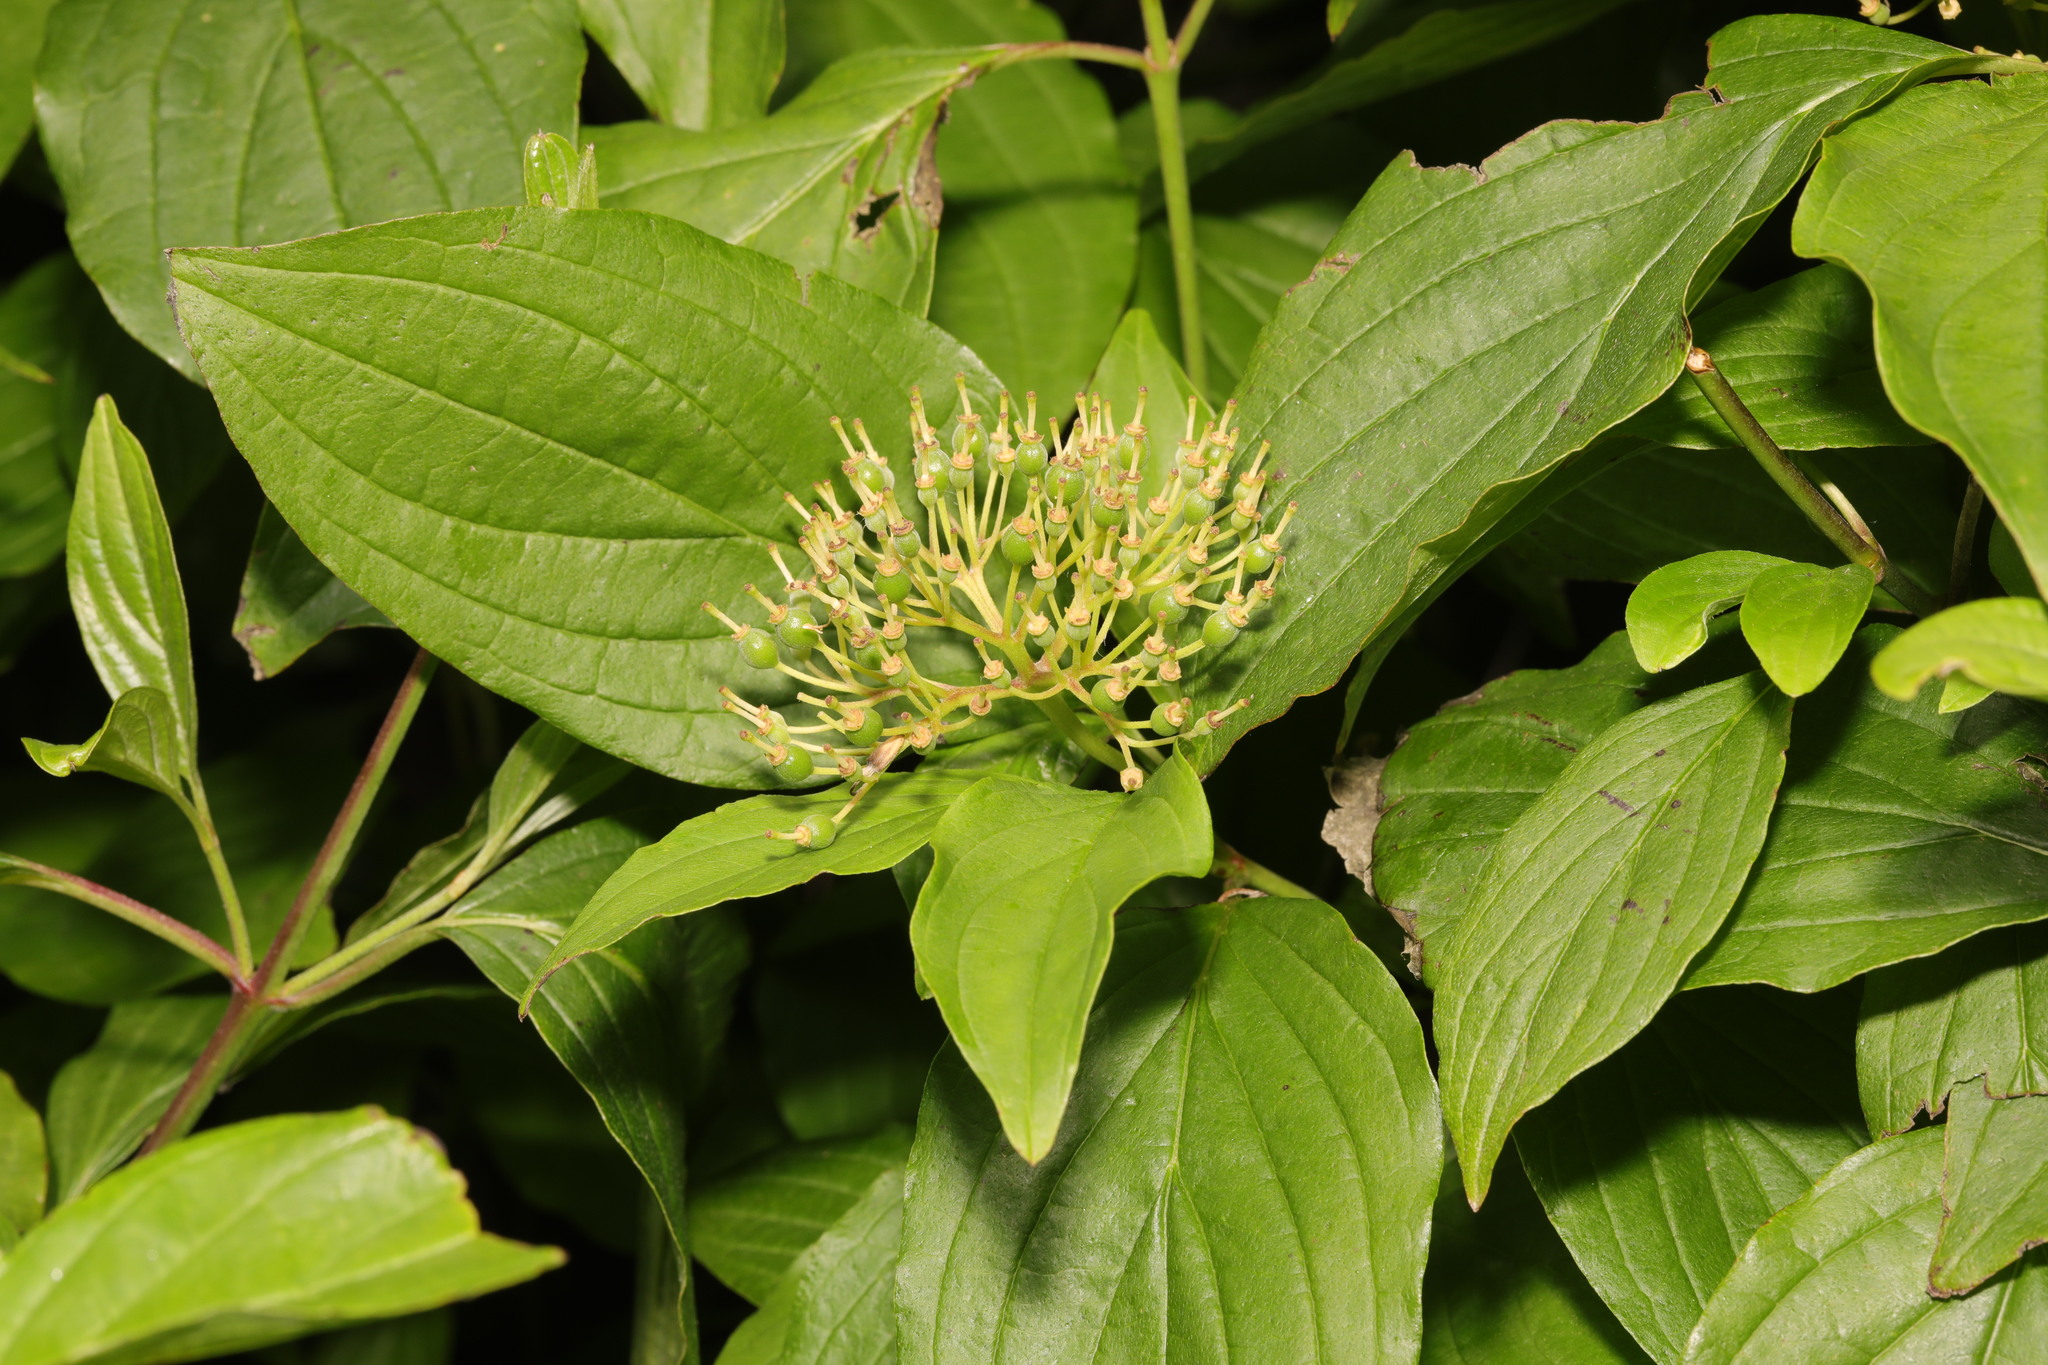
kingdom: Plantae
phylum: Tracheophyta
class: Magnoliopsida
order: Cornales
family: Cornaceae
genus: Cornus
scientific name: Cornus sanguinea
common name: Dogwood
